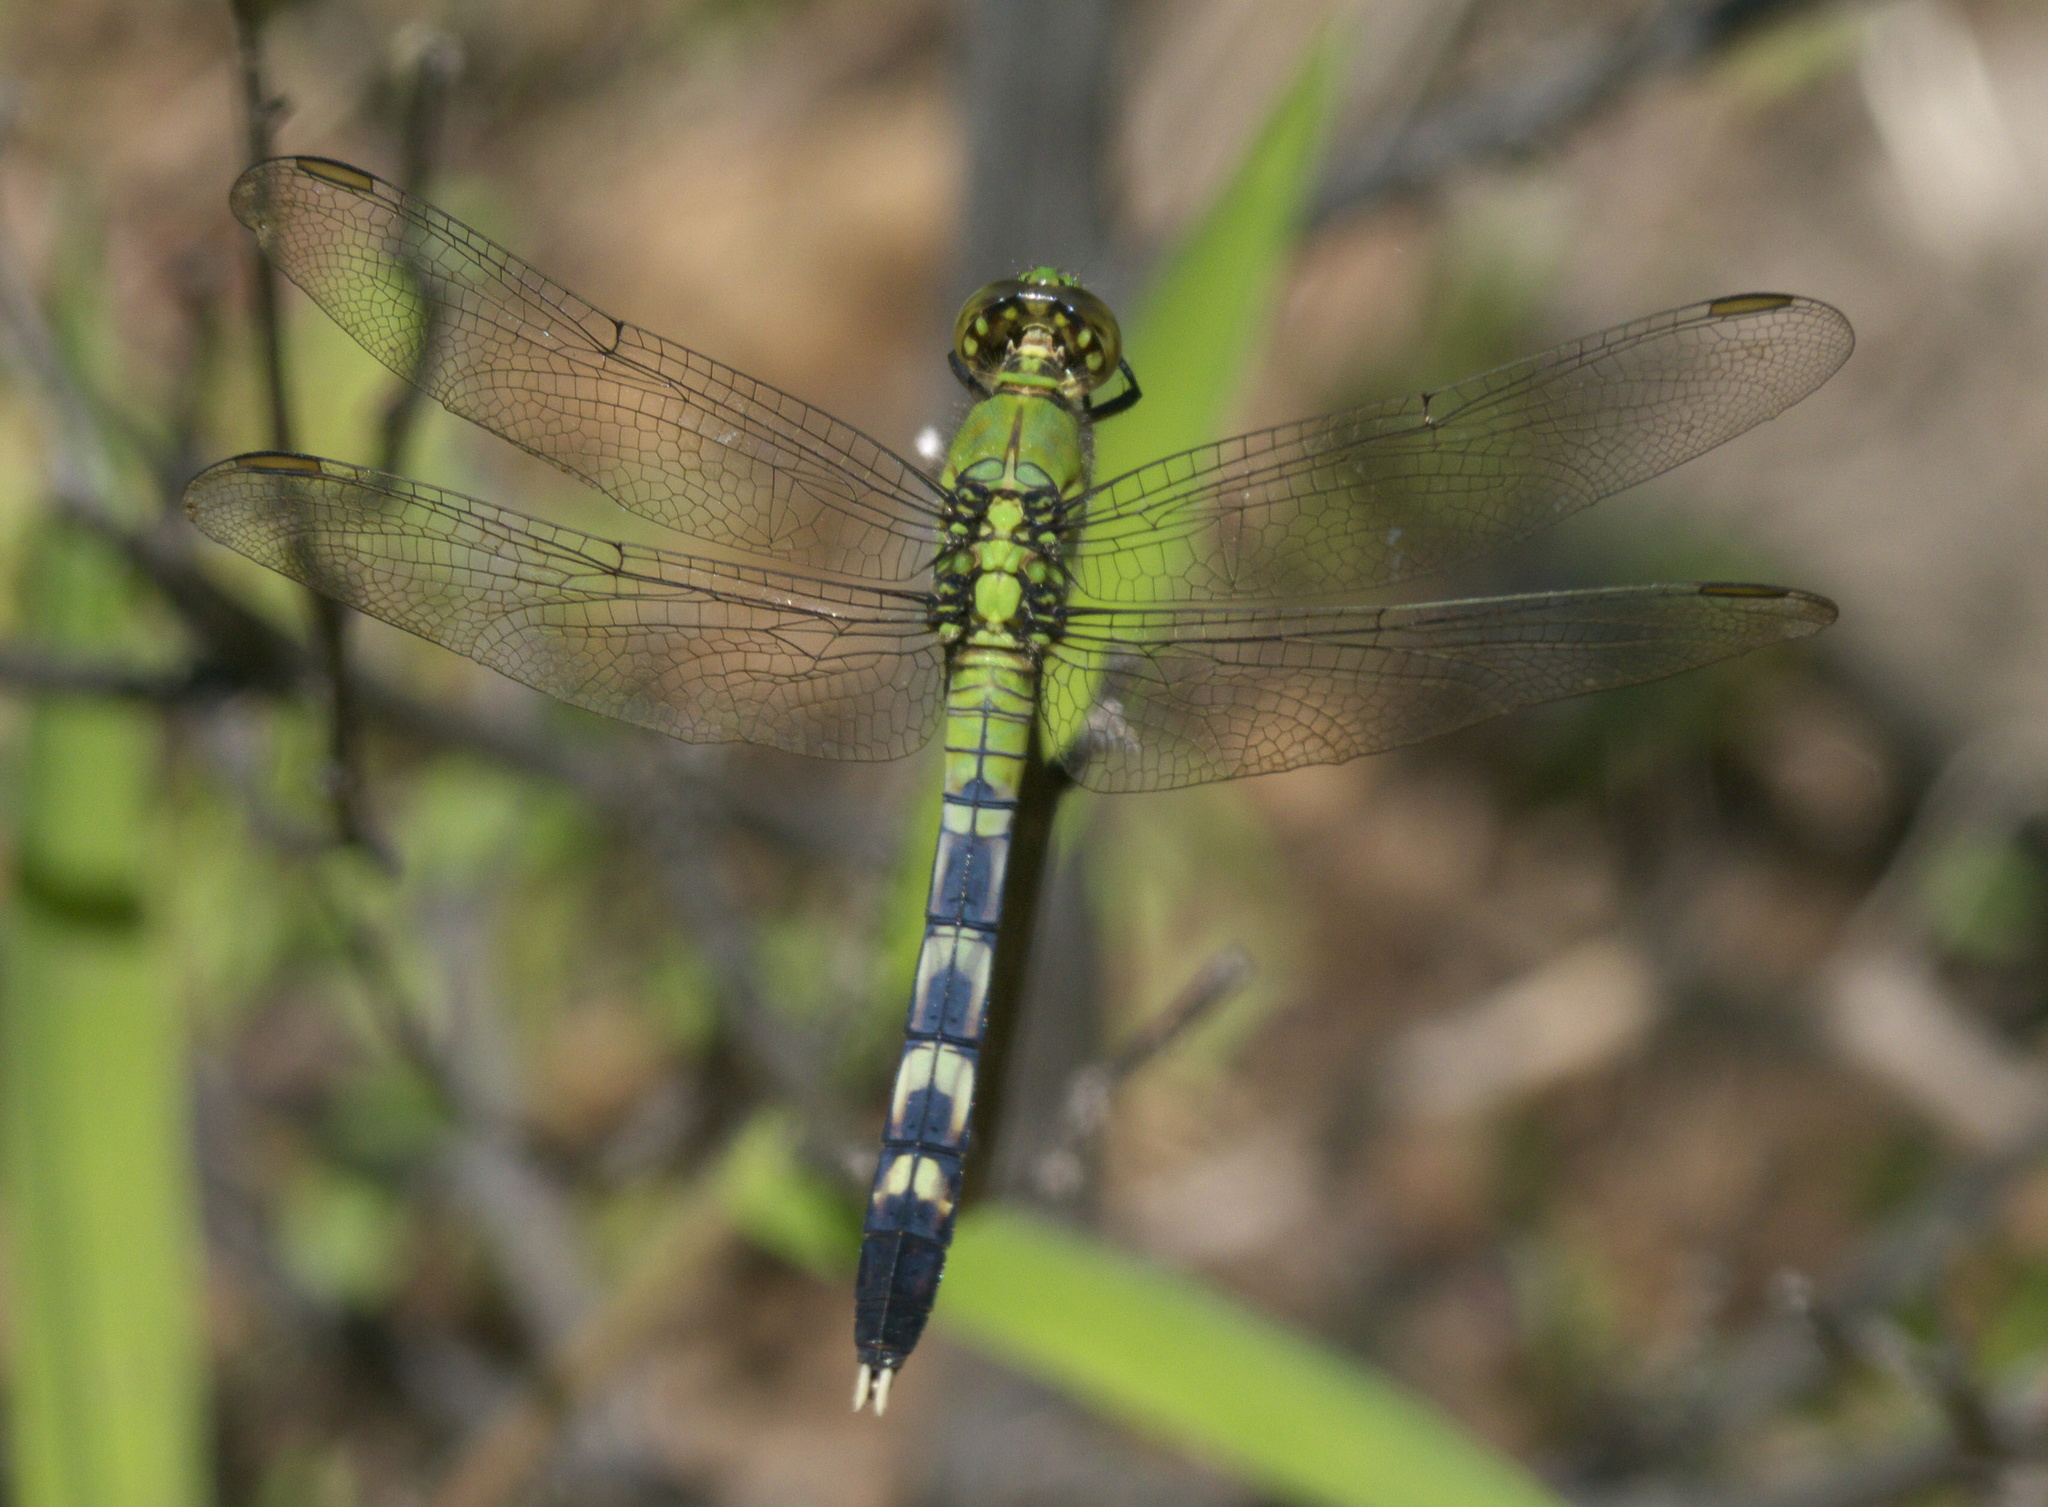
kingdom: Animalia
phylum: Arthropoda
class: Insecta
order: Odonata
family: Libellulidae
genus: Erythemis
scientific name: Erythemis simplicicollis
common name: Eastern pondhawk
